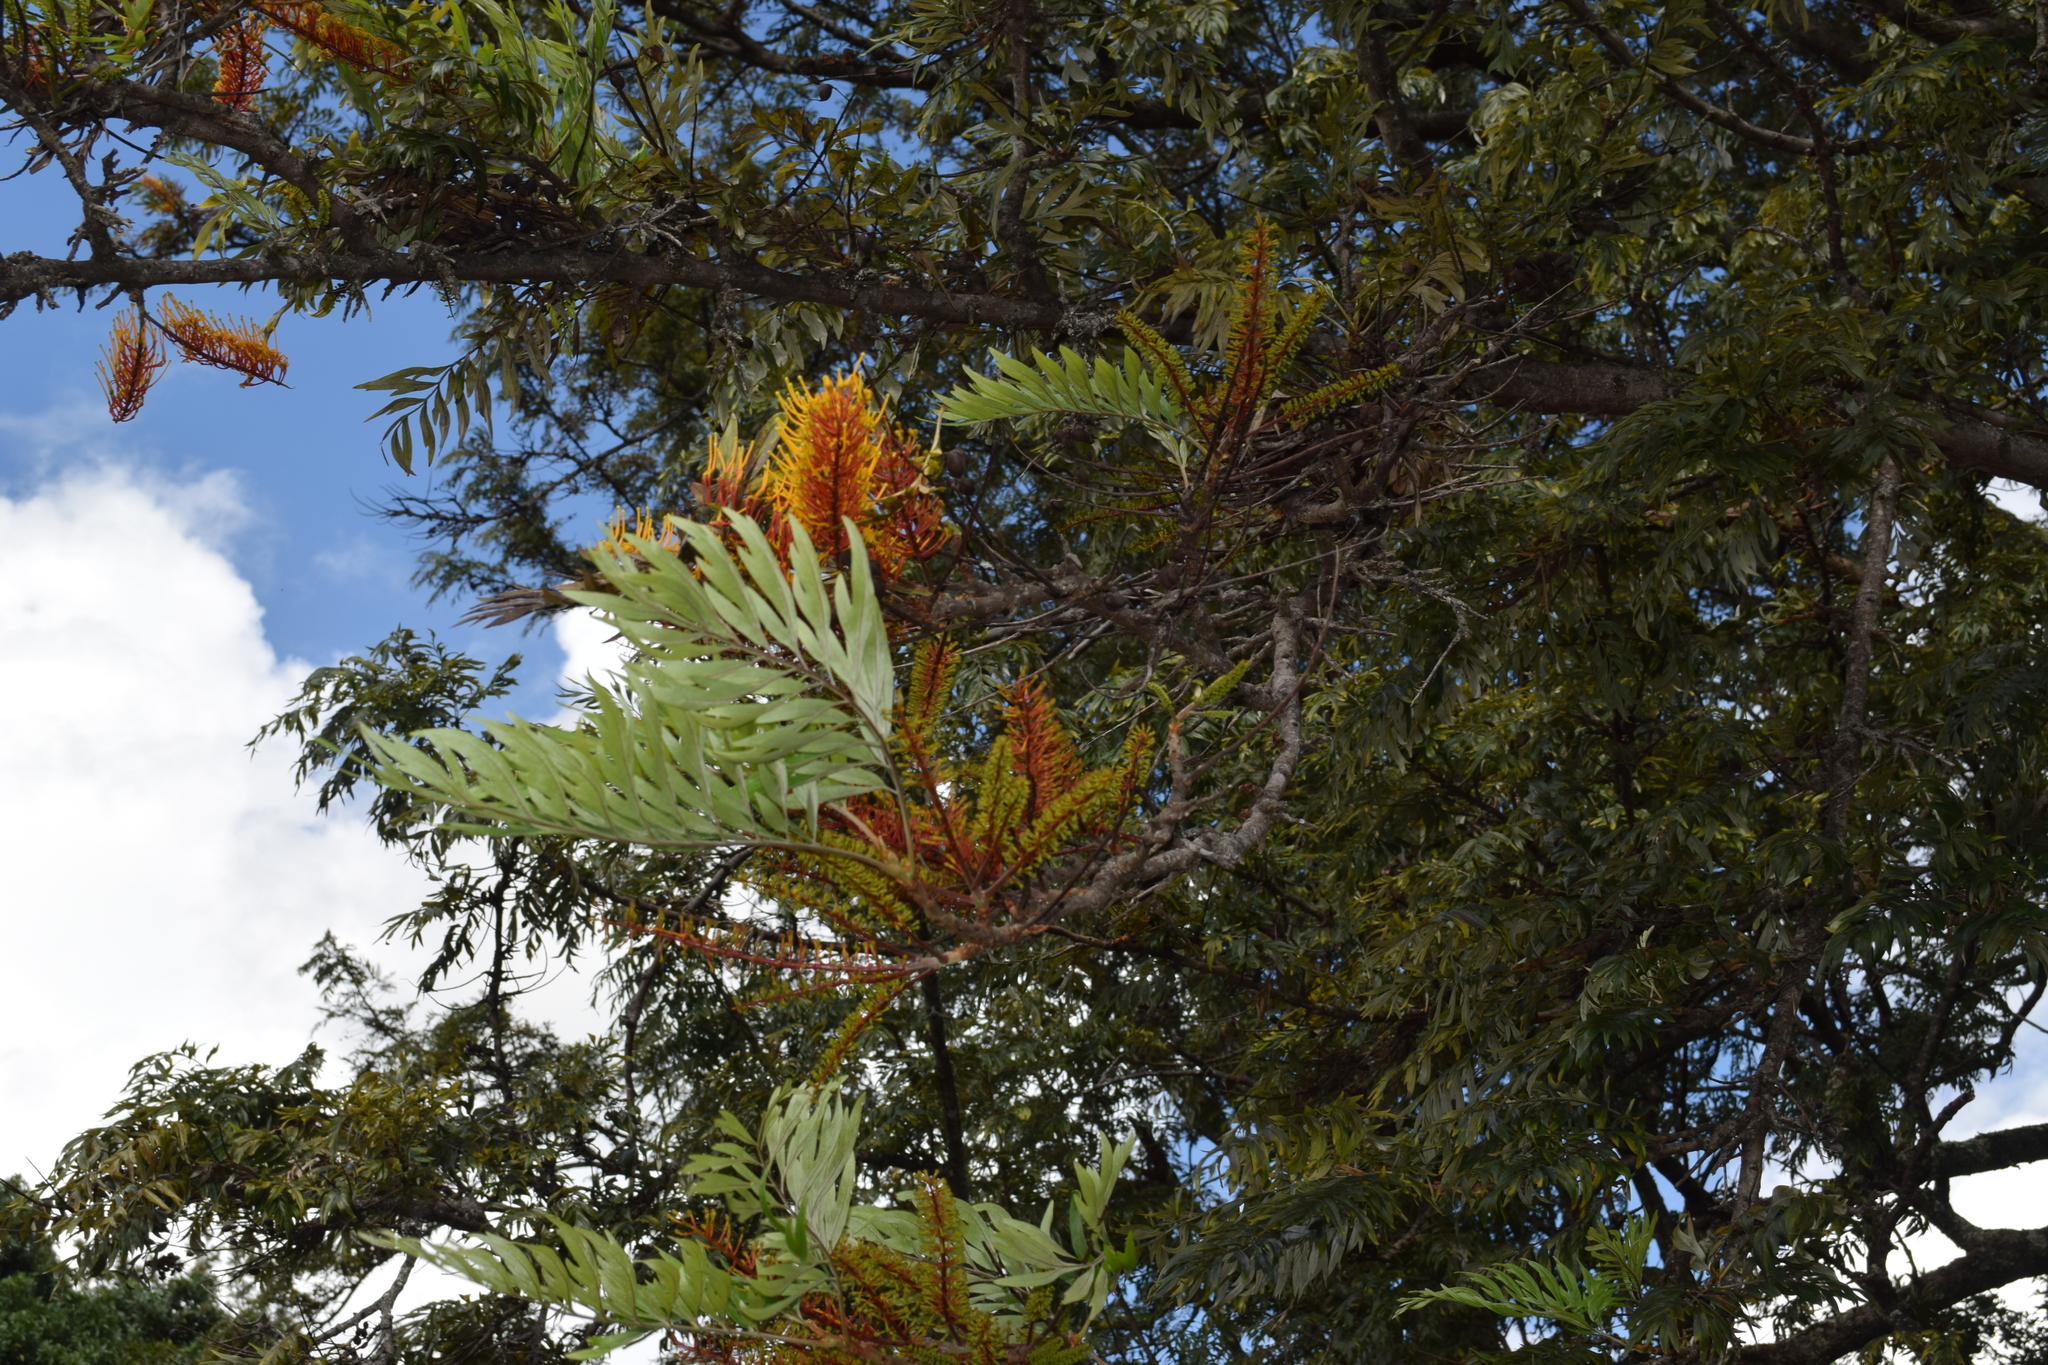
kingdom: Plantae
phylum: Tracheophyta
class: Magnoliopsida
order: Proteales
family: Proteaceae
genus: Grevillea
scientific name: Grevillea robusta
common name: Silkoak
